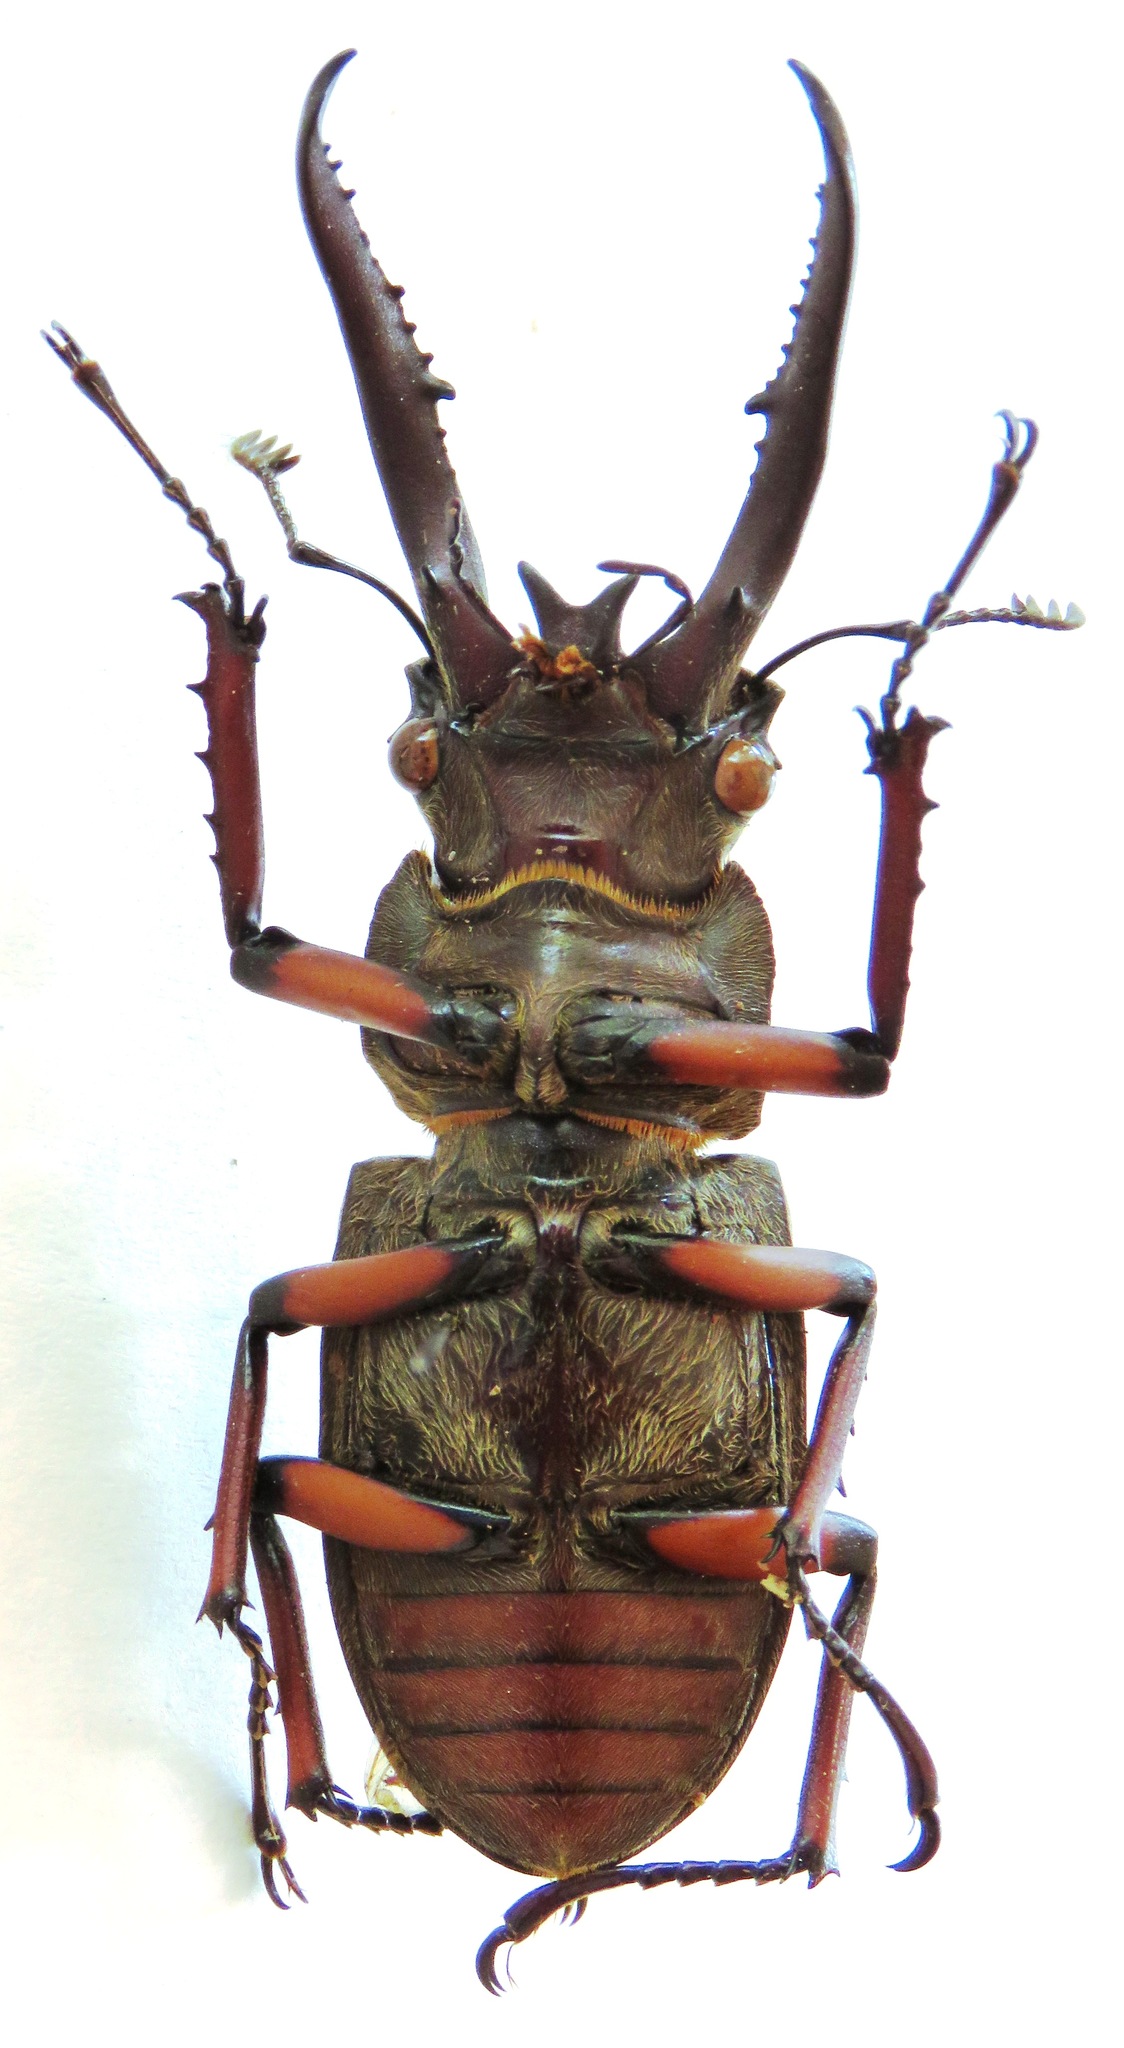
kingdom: Animalia
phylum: Arthropoda
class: Insecta
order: Coleoptera
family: Lucanidae
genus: Lucanus
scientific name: Lucanus planeti
